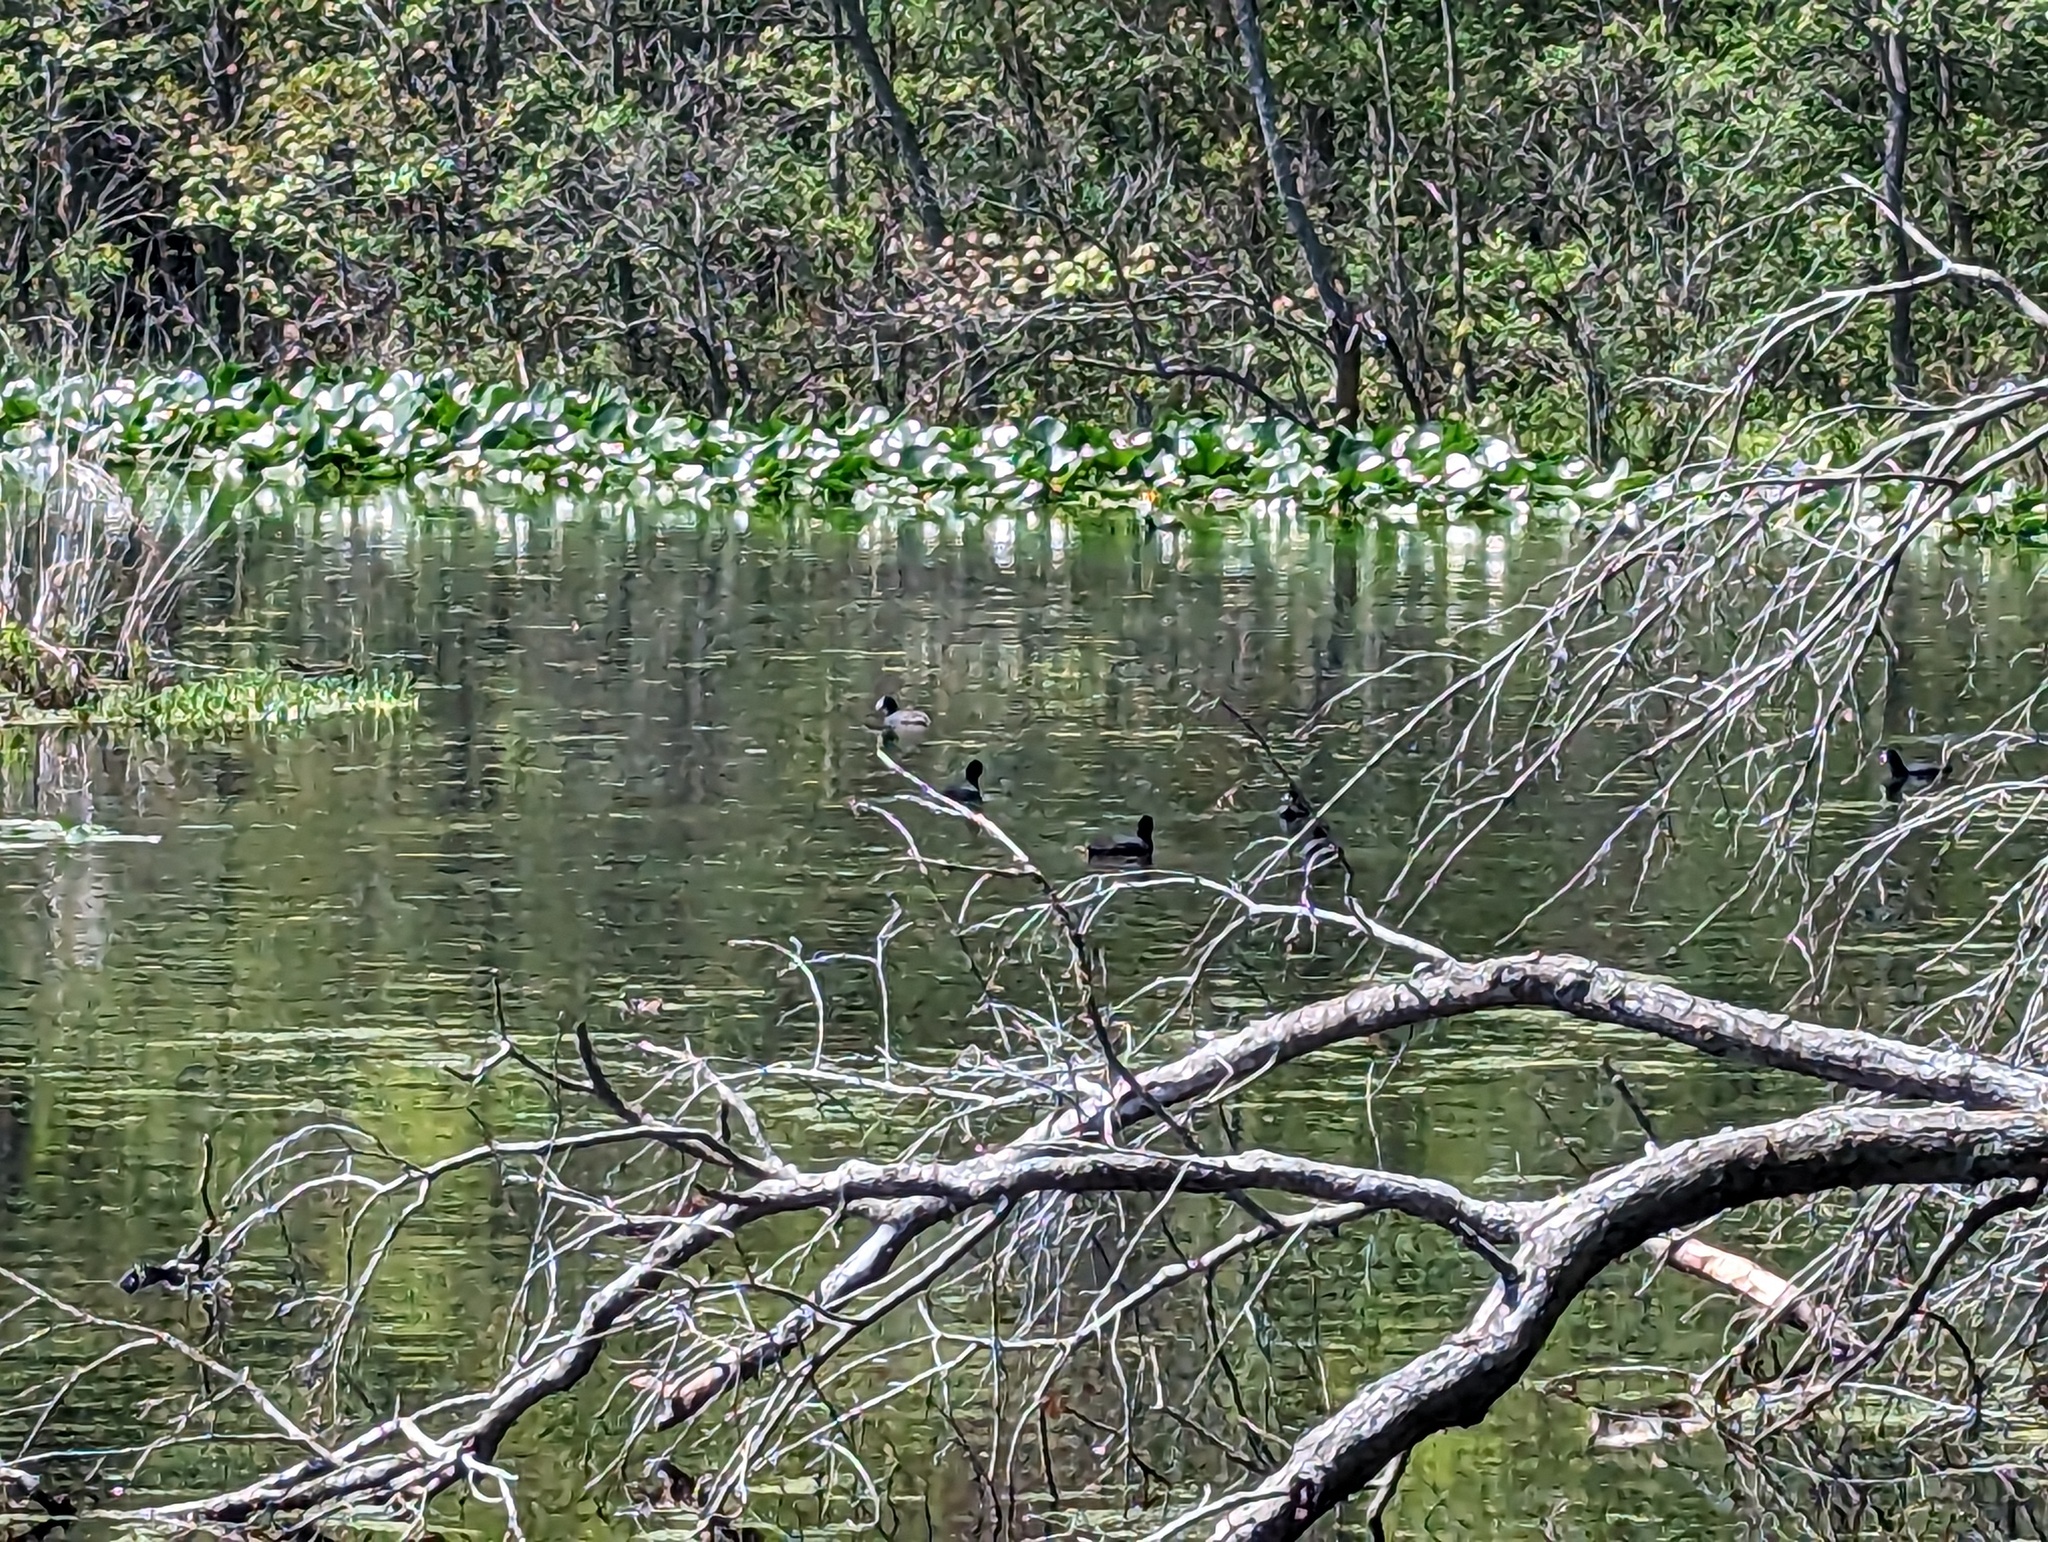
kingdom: Animalia
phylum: Chordata
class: Aves
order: Gruiformes
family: Rallidae
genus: Fulica
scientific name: Fulica americana
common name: American coot
